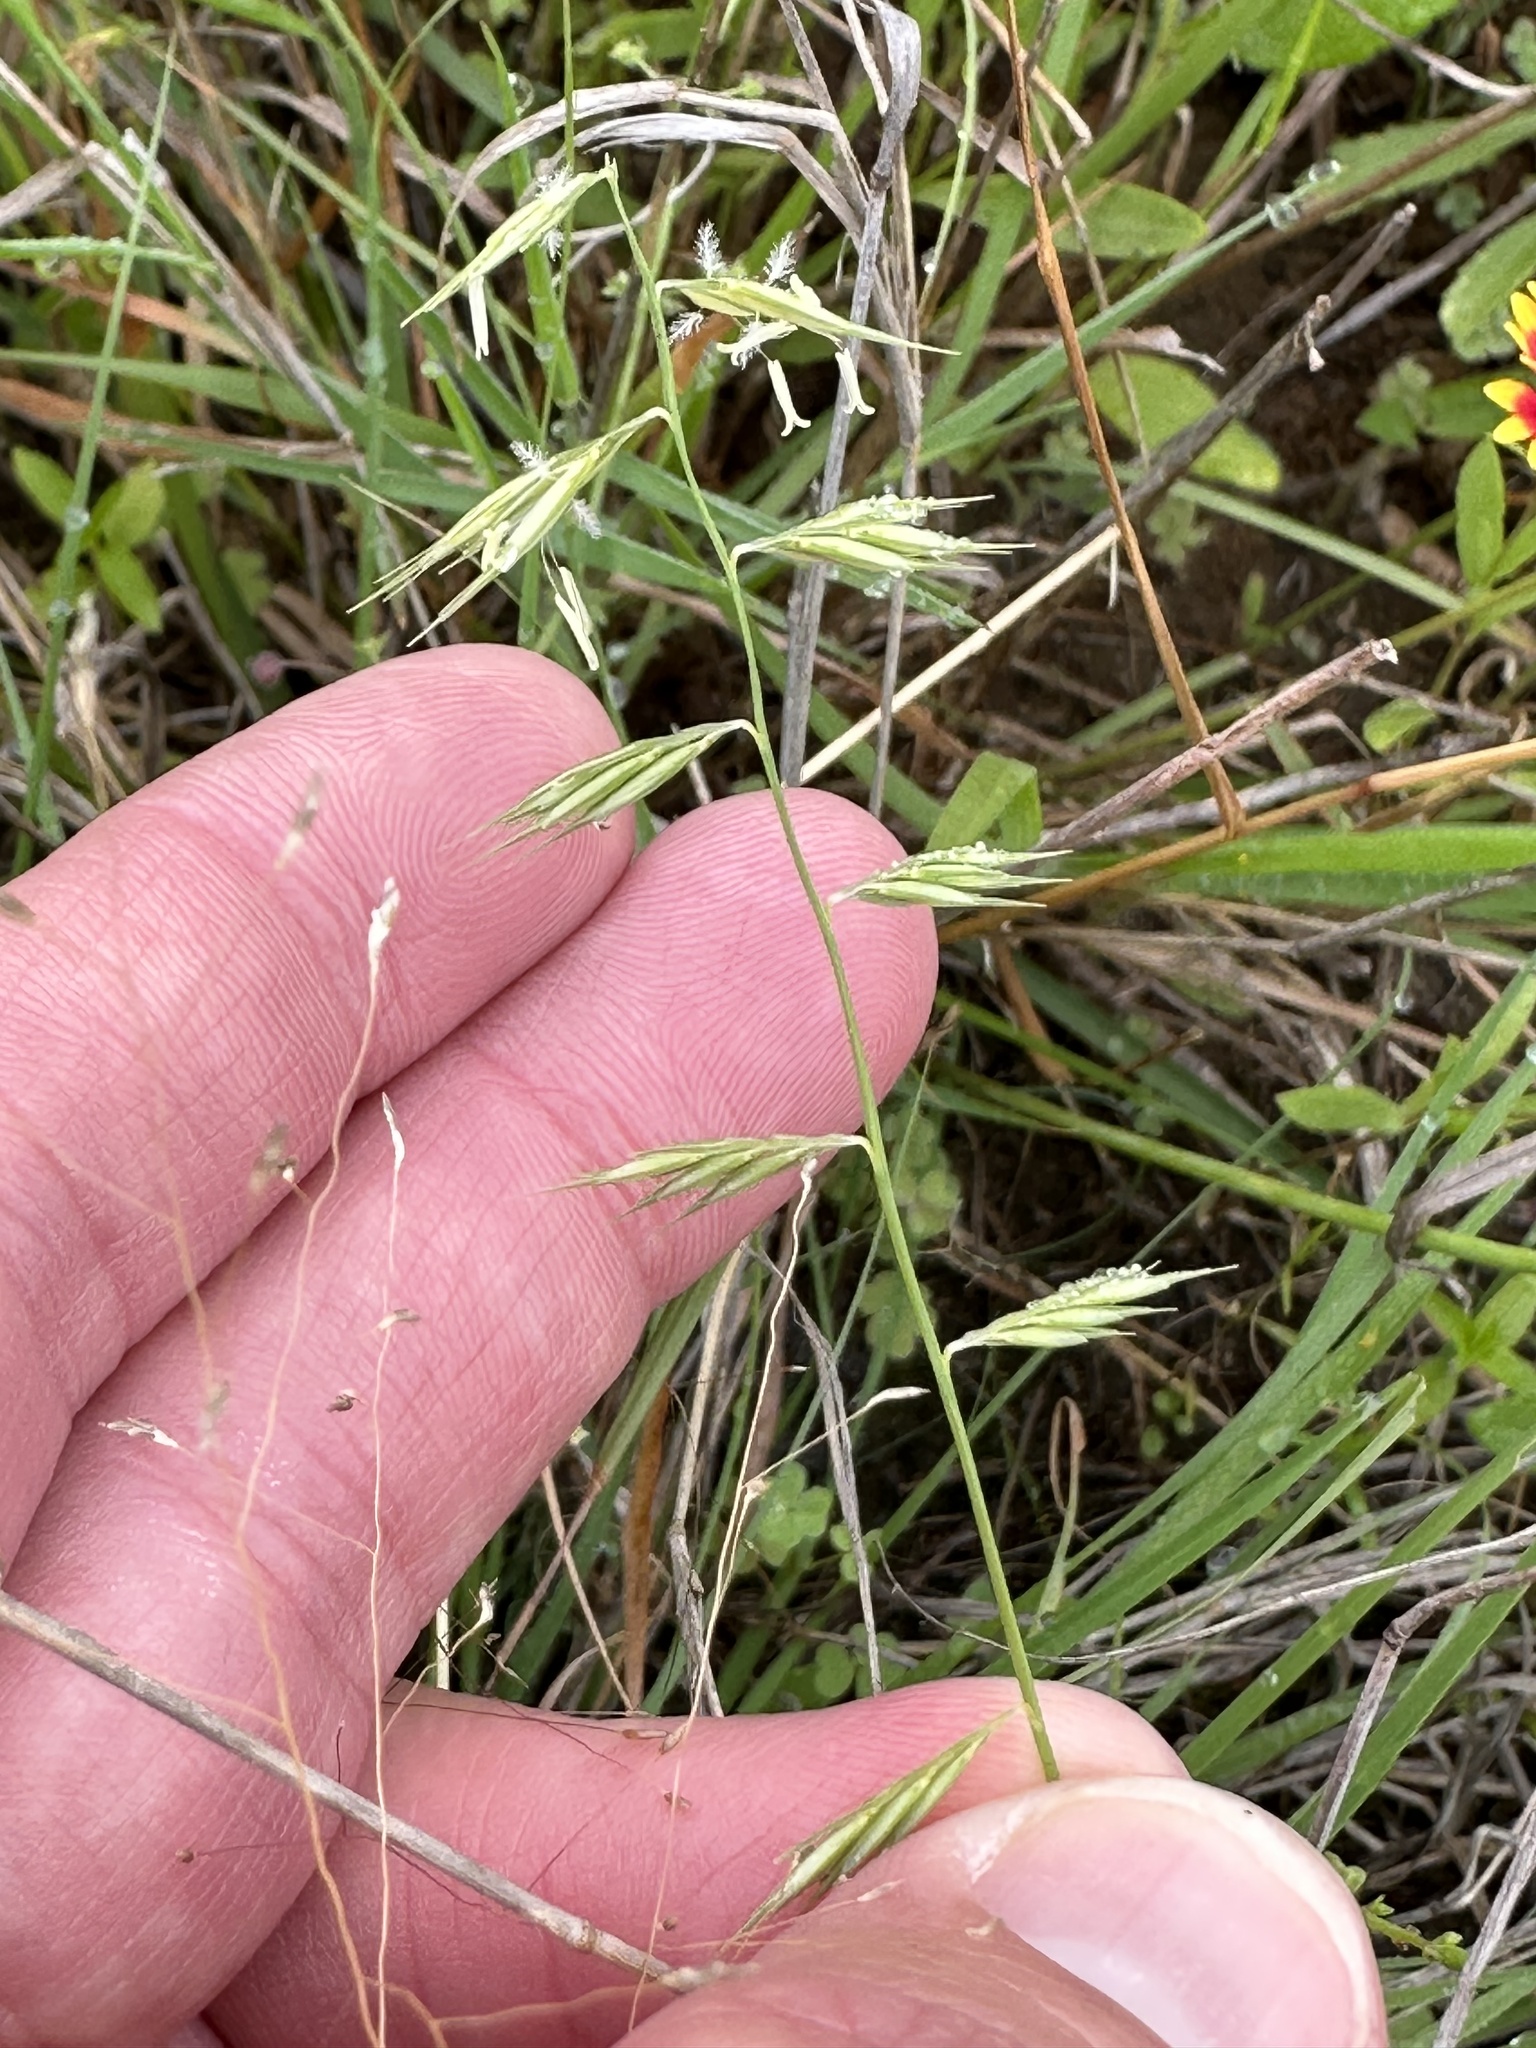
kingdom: Plantae
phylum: Tracheophyta
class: Liliopsida
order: Poales
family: Poaceae
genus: Bouteloua
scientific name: Bouteloua repens
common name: Slender grama
